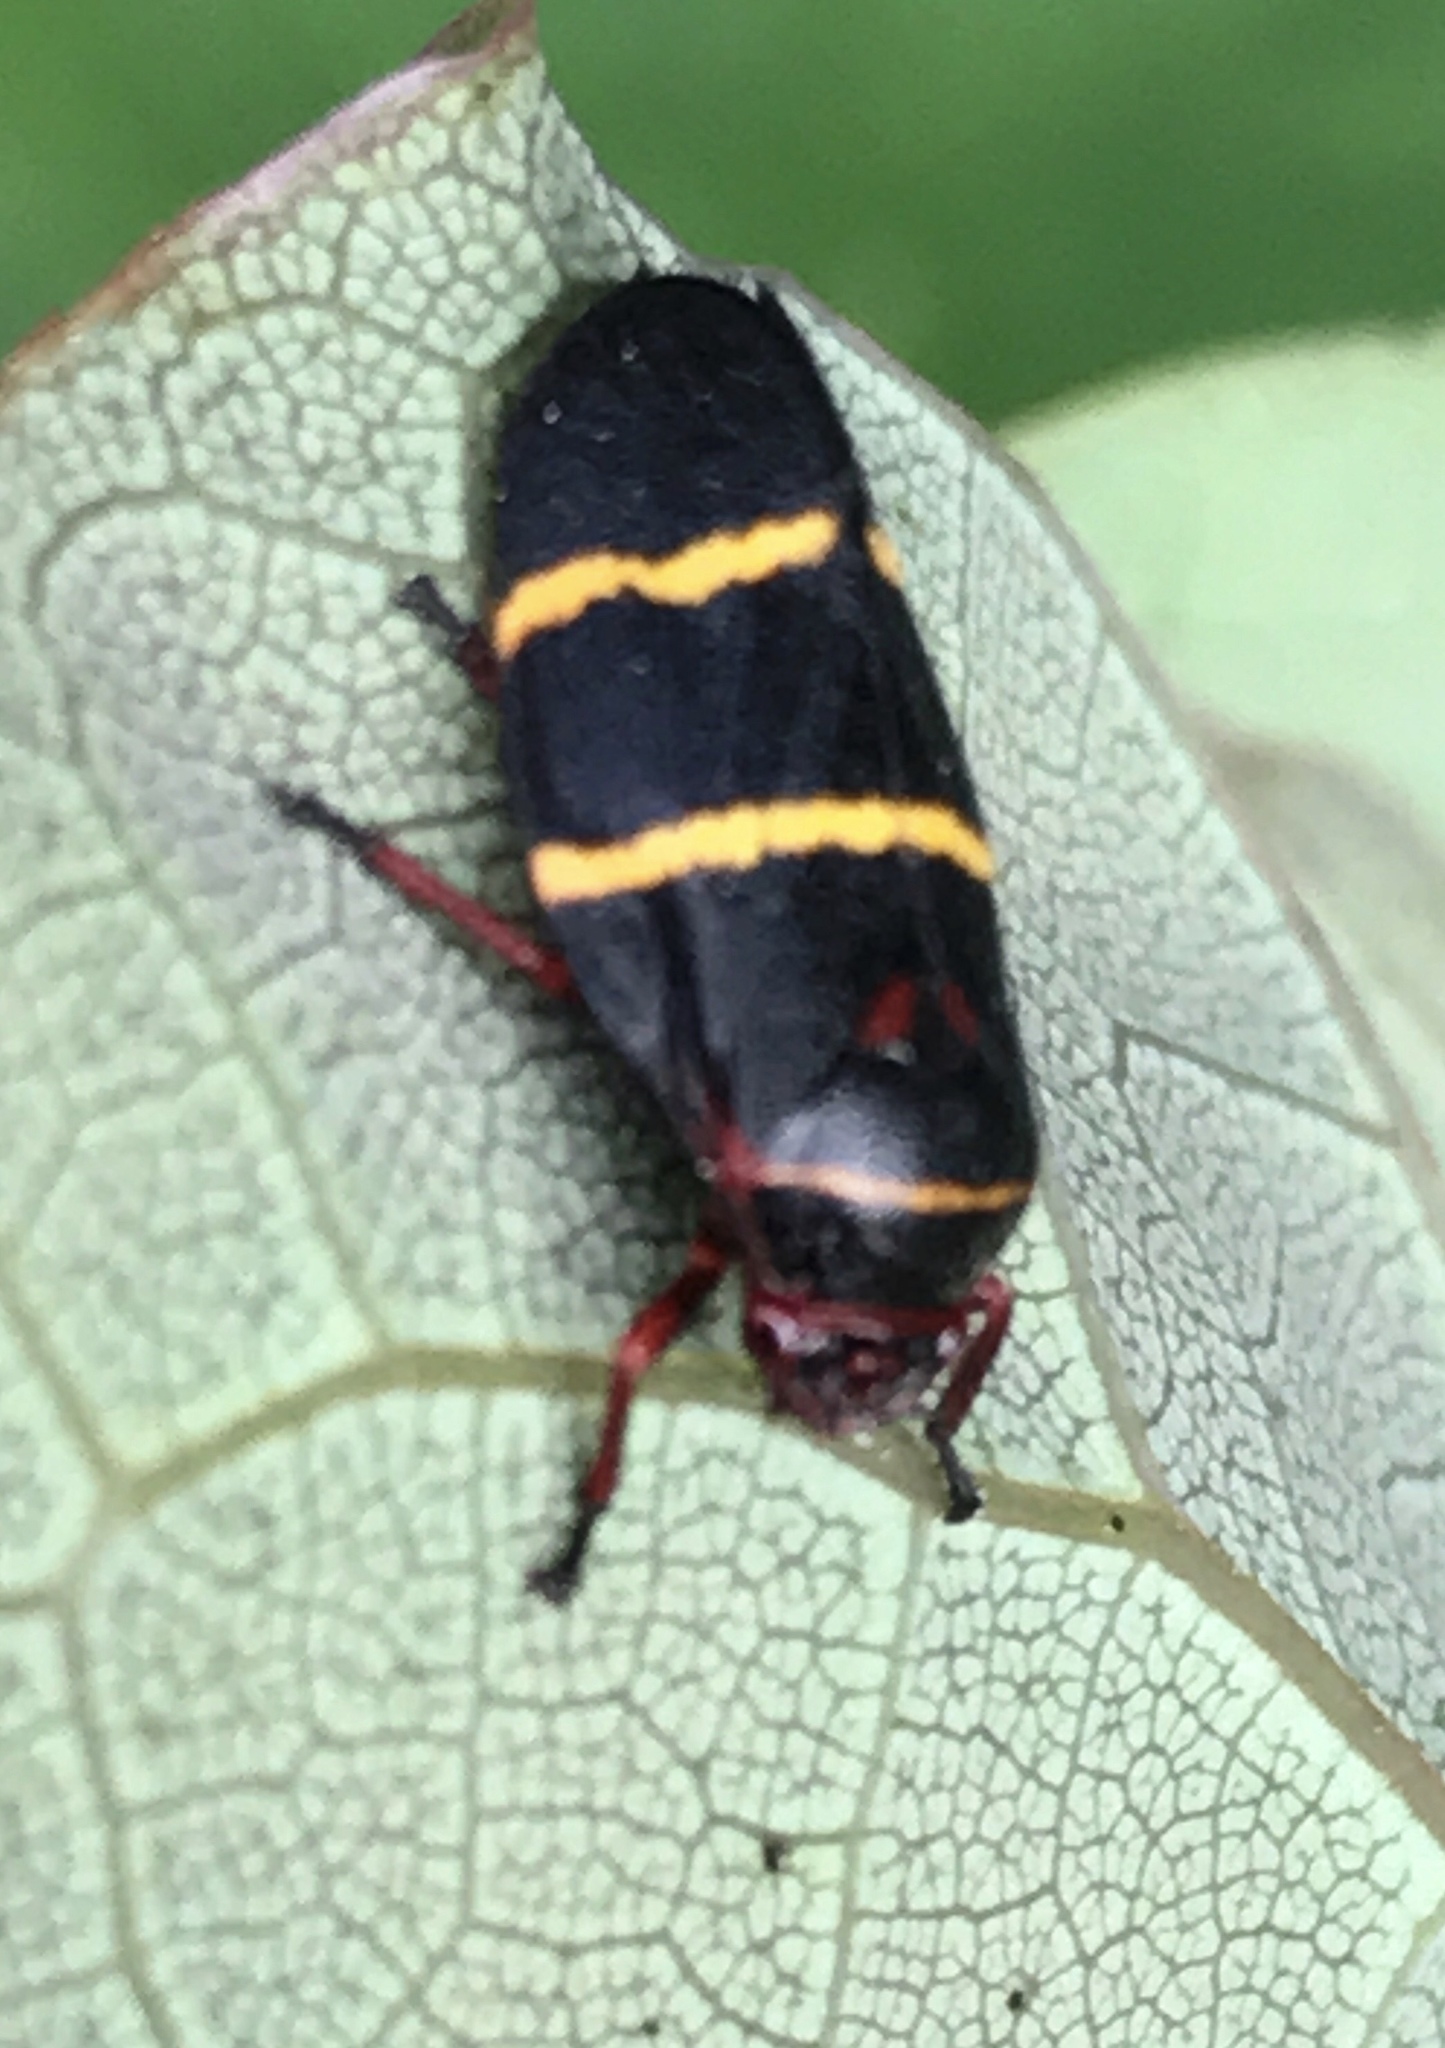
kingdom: Animalia
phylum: Arthropoda
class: Insecta
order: Hemiptera
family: Cercopidae
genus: Prosapia
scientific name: Prosapia bicincta
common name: Twolined spittlebug
